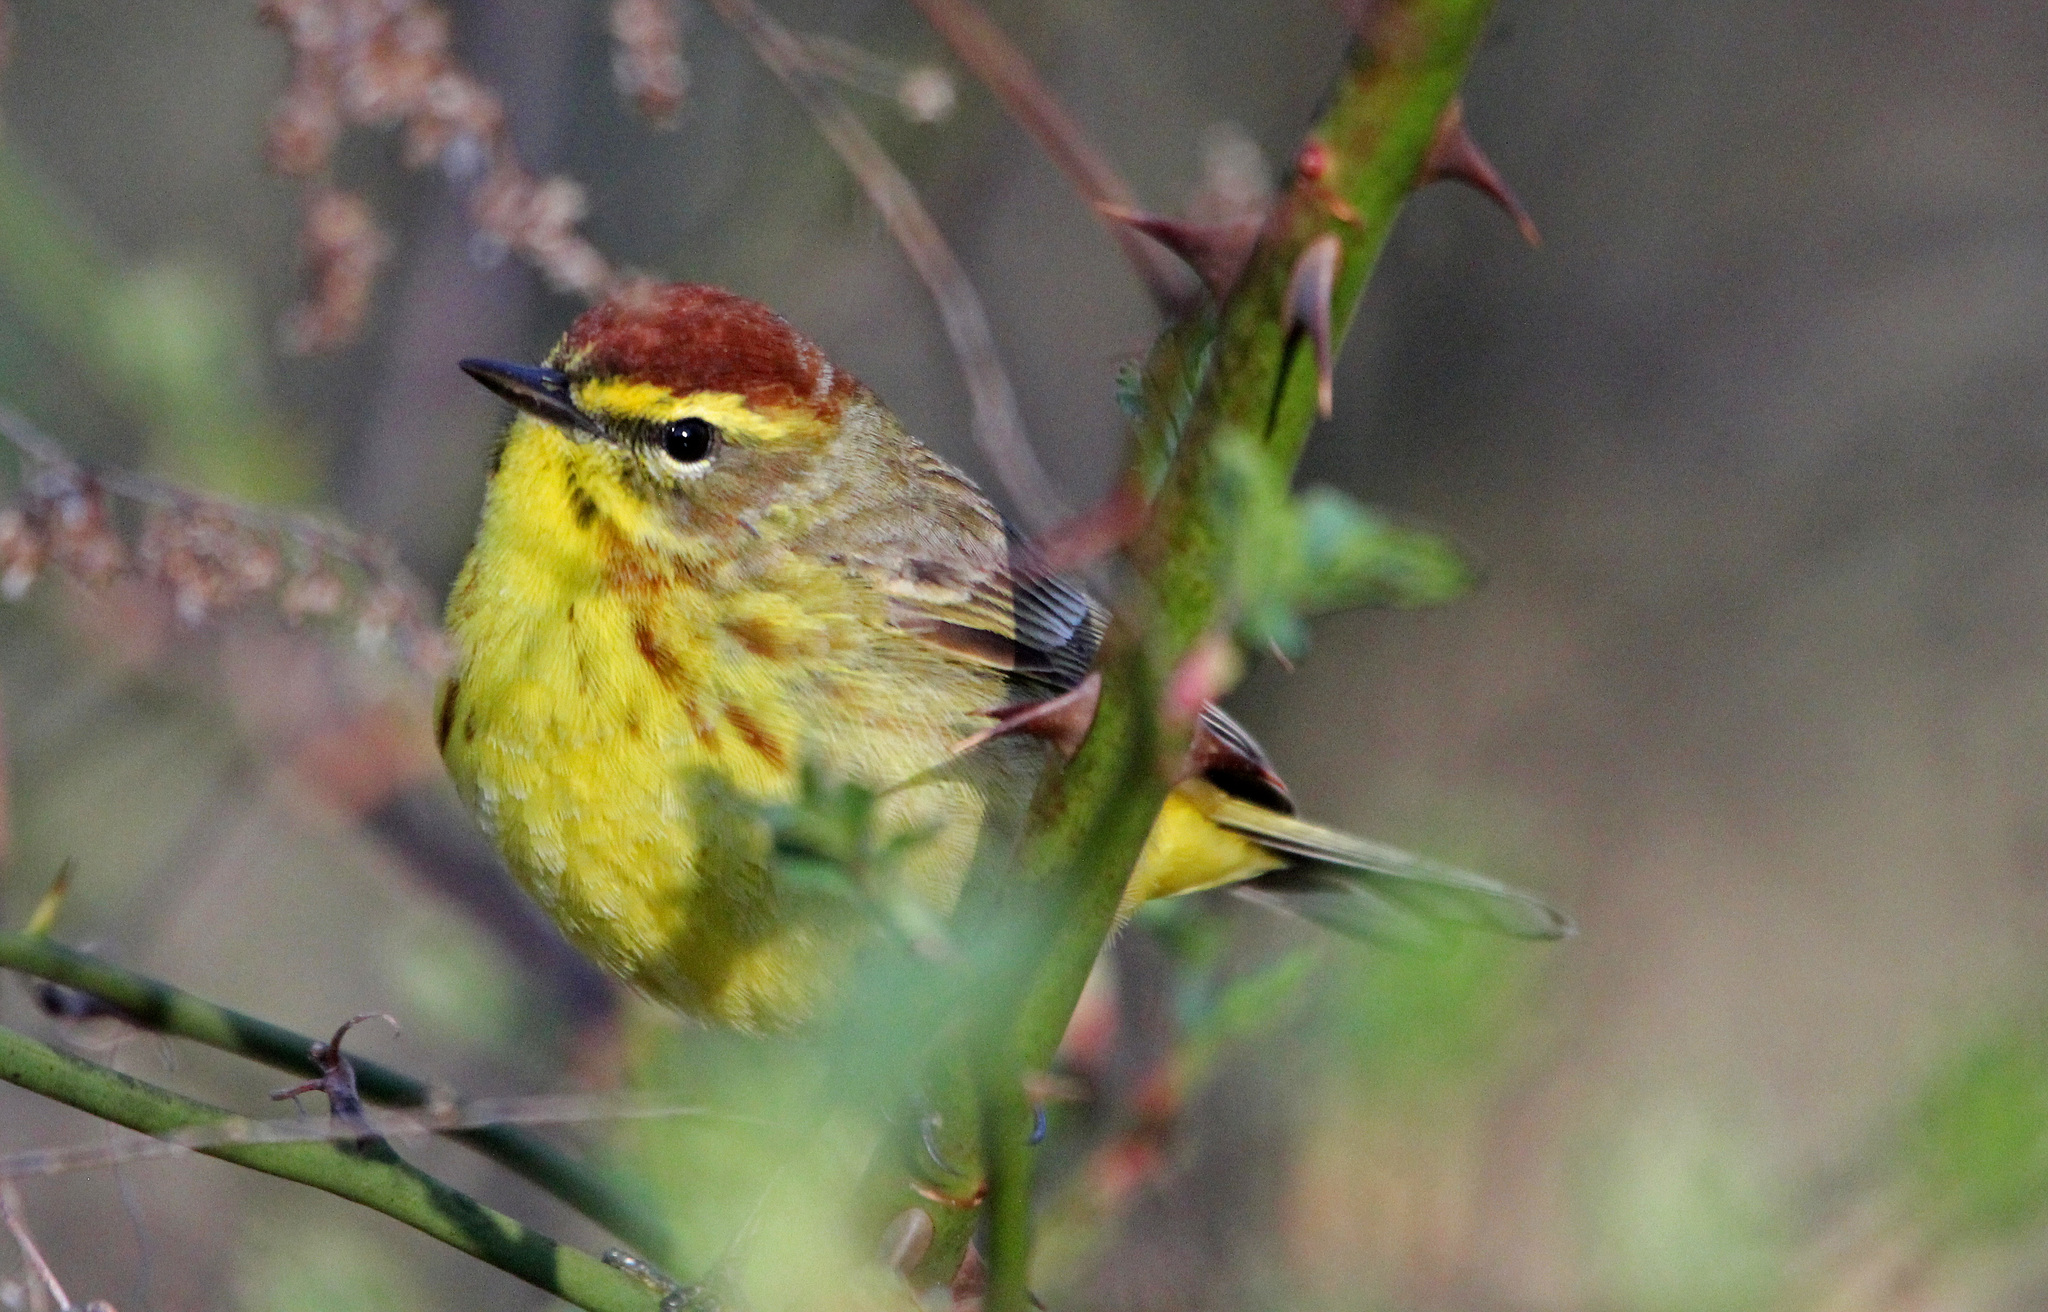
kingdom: Animalia
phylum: Chordata
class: Aves
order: Passeriformes
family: Parulidae
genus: Setophaga
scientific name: Setophaga palmarum
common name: Palm warbler
